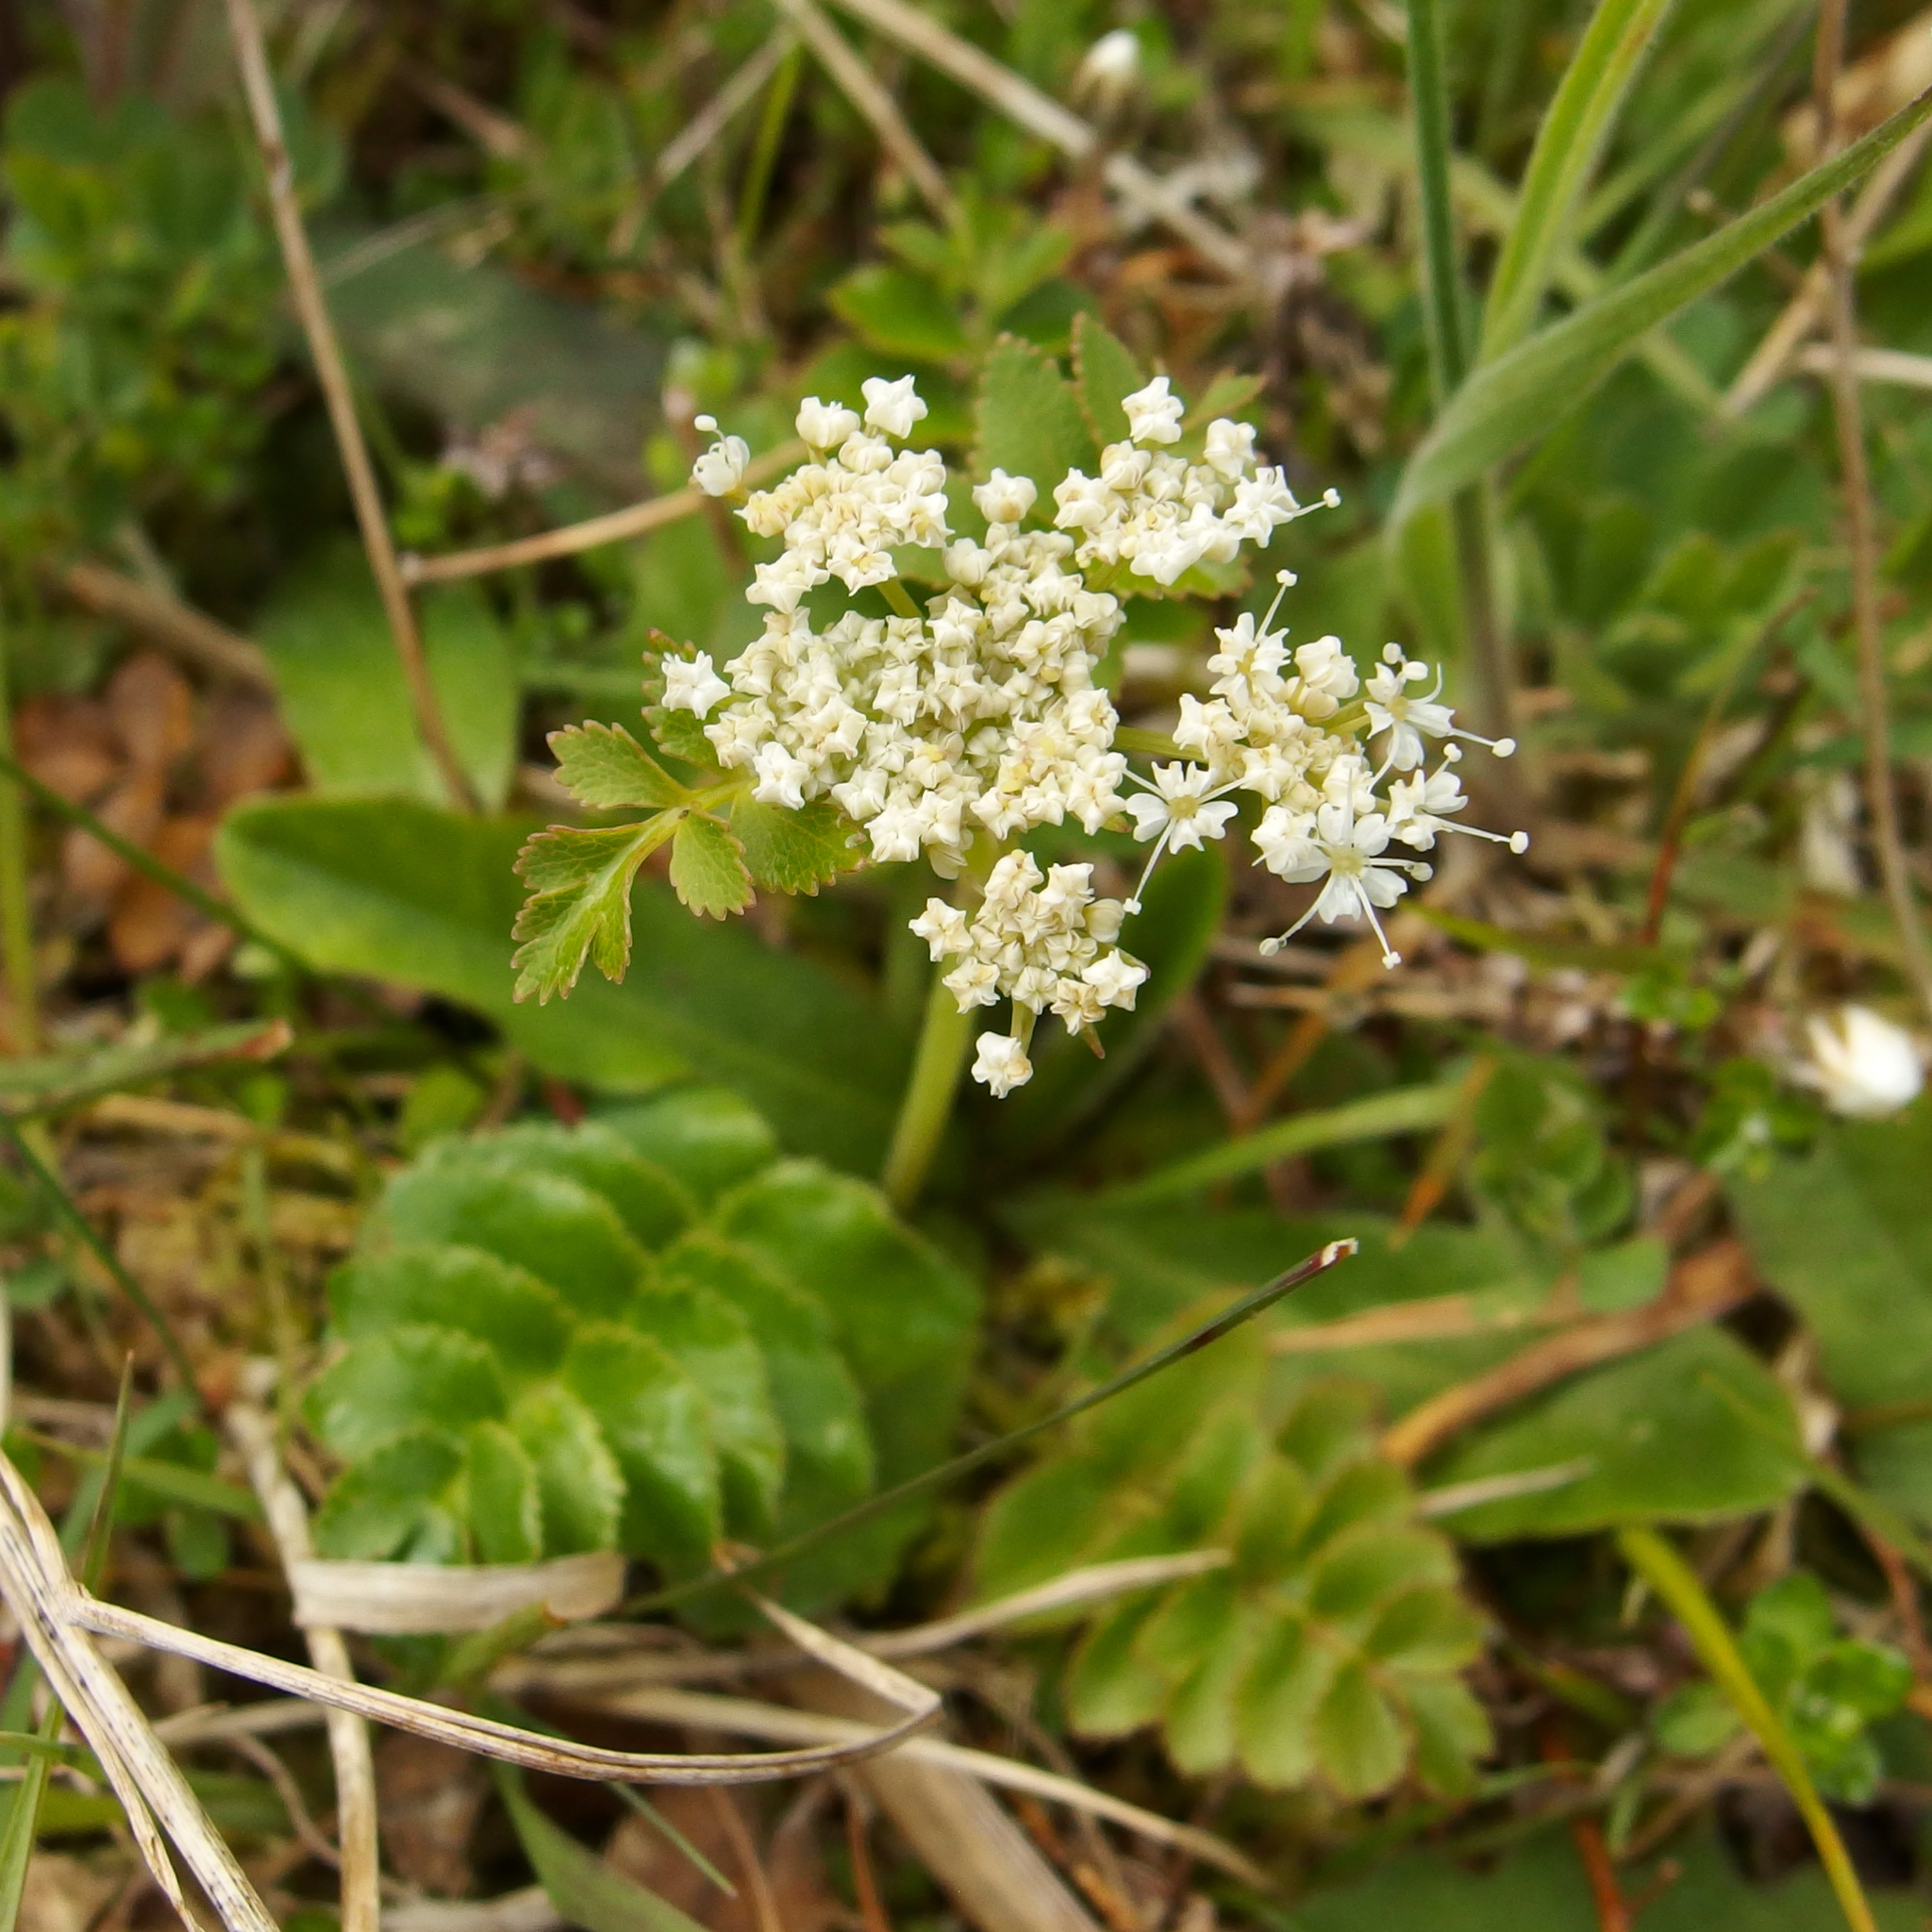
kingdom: Plantae
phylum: Tracheophyta
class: Magnoliopsida
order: Apiales
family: Apiaceae
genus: Gingidia
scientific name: Gingidia montana
